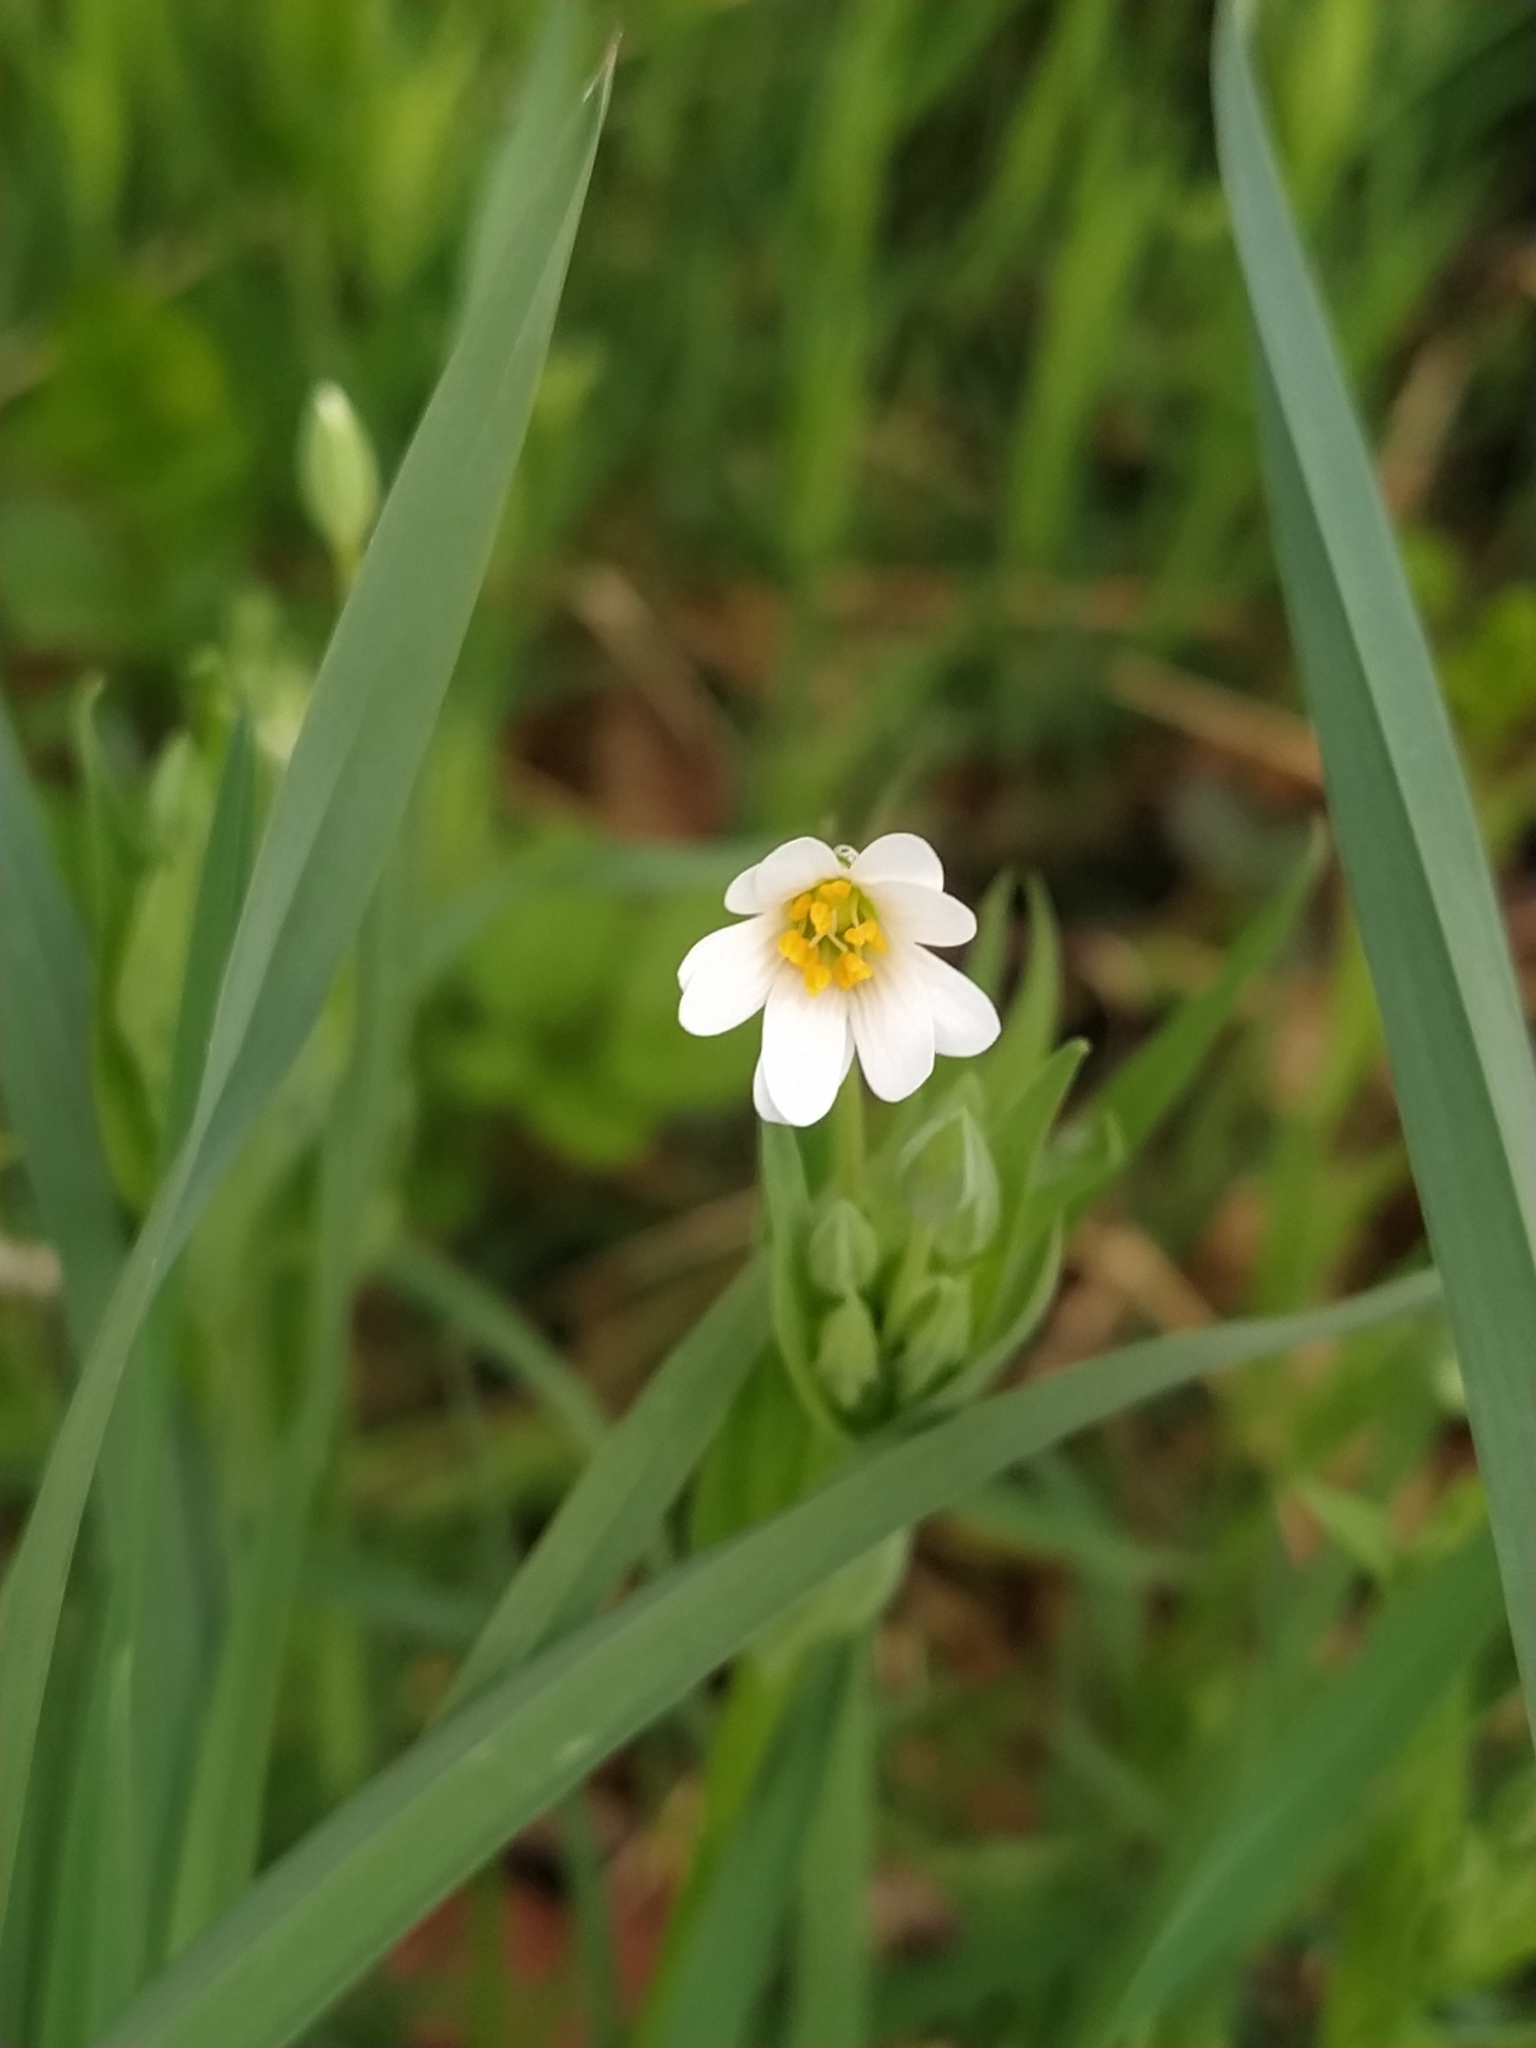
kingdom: Plantae
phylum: Tracheophyta
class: Magnoliopsida
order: Caryophyllales
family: Caryophyllaceae
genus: Rabelera
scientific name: Rabelera holostea
